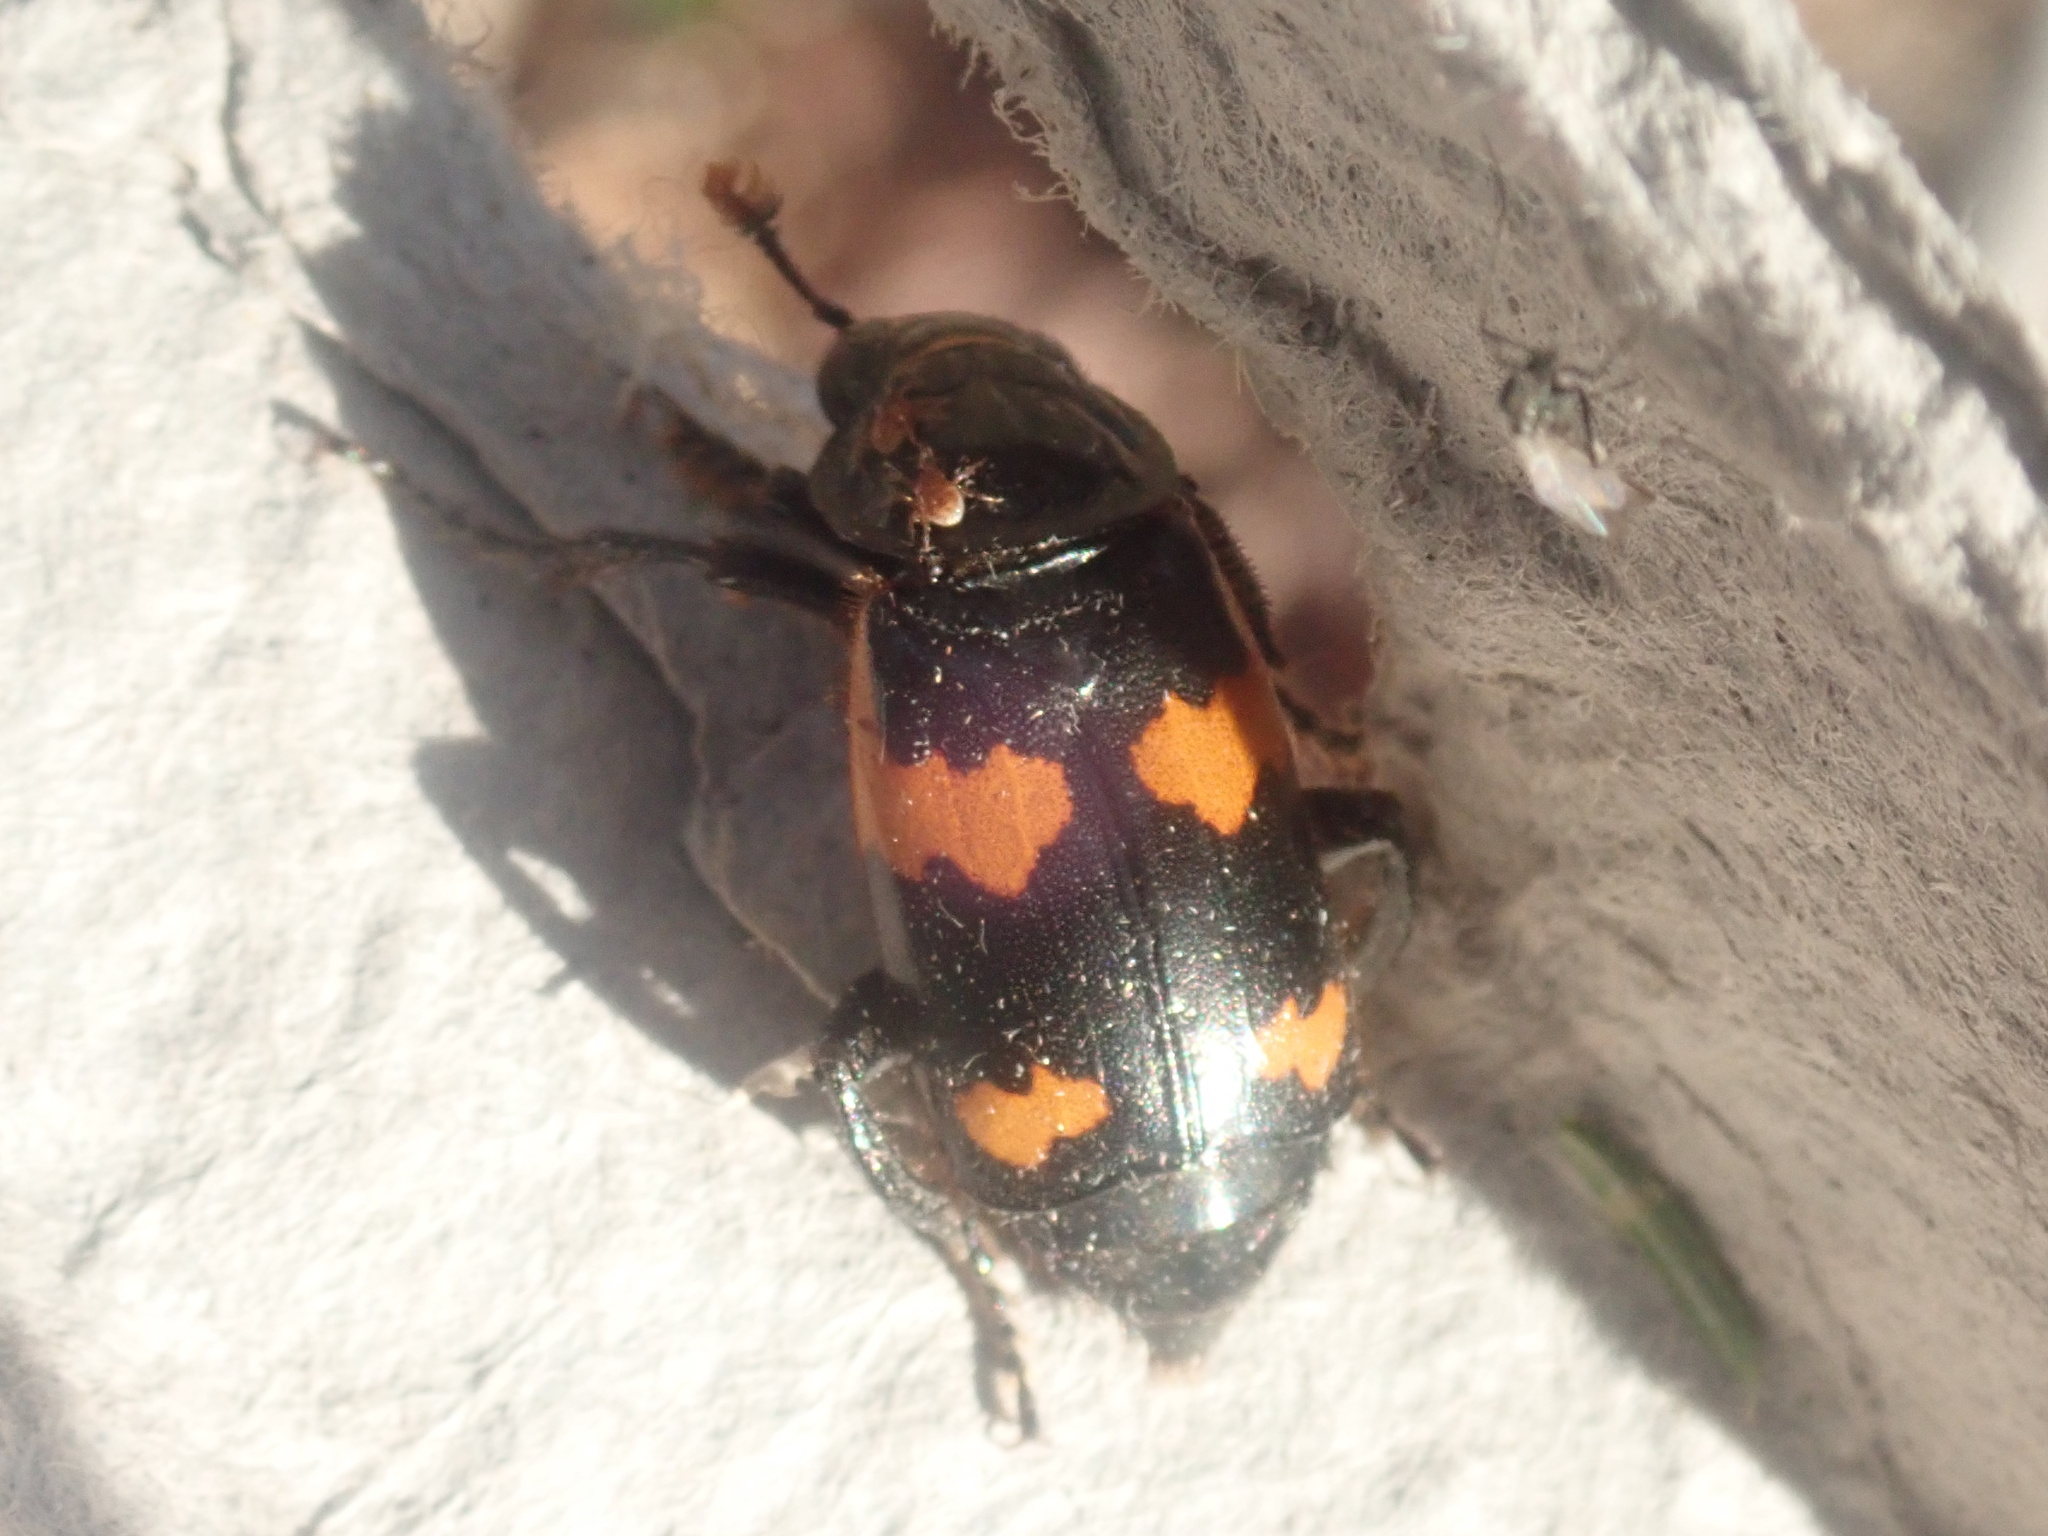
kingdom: Animalia
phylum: Arthropoda
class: Insecta
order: Coleoptera
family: Staphylinidae
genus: Nicrophorus
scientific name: Nicrophorus sayi
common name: Say's burying beetle
